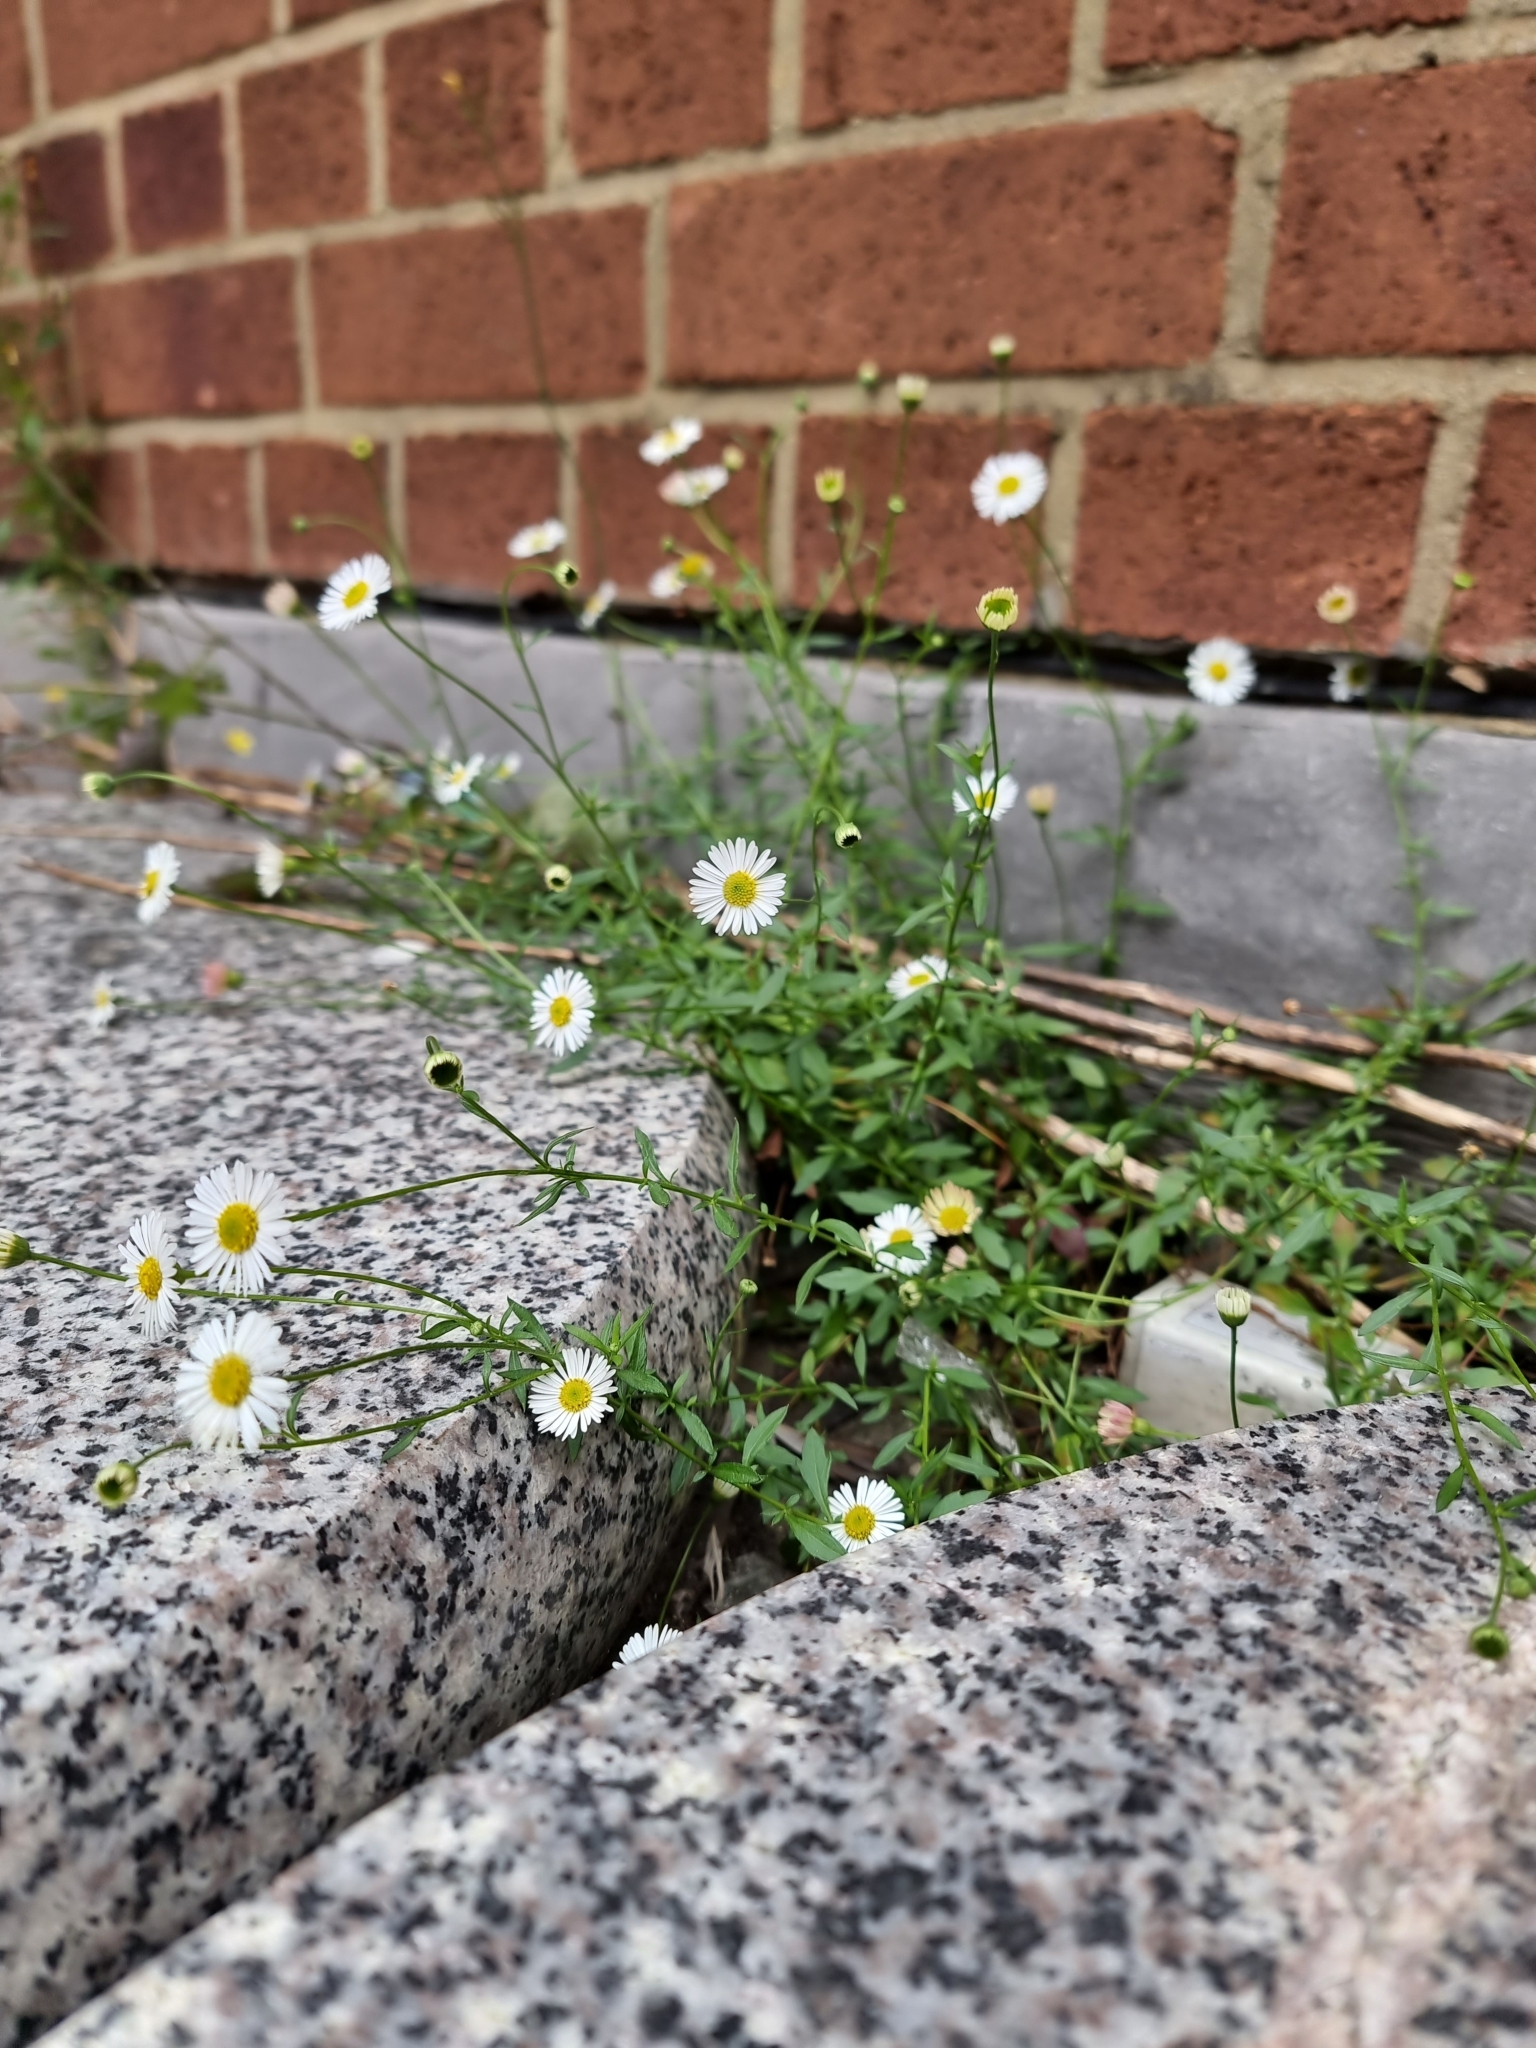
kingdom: Plantae
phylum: Tracheophyta
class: Magnoliopsida
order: Asterales
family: Asteraceae
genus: Erigeron
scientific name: Erigeron karvinskianus
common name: Mexican fleabane
